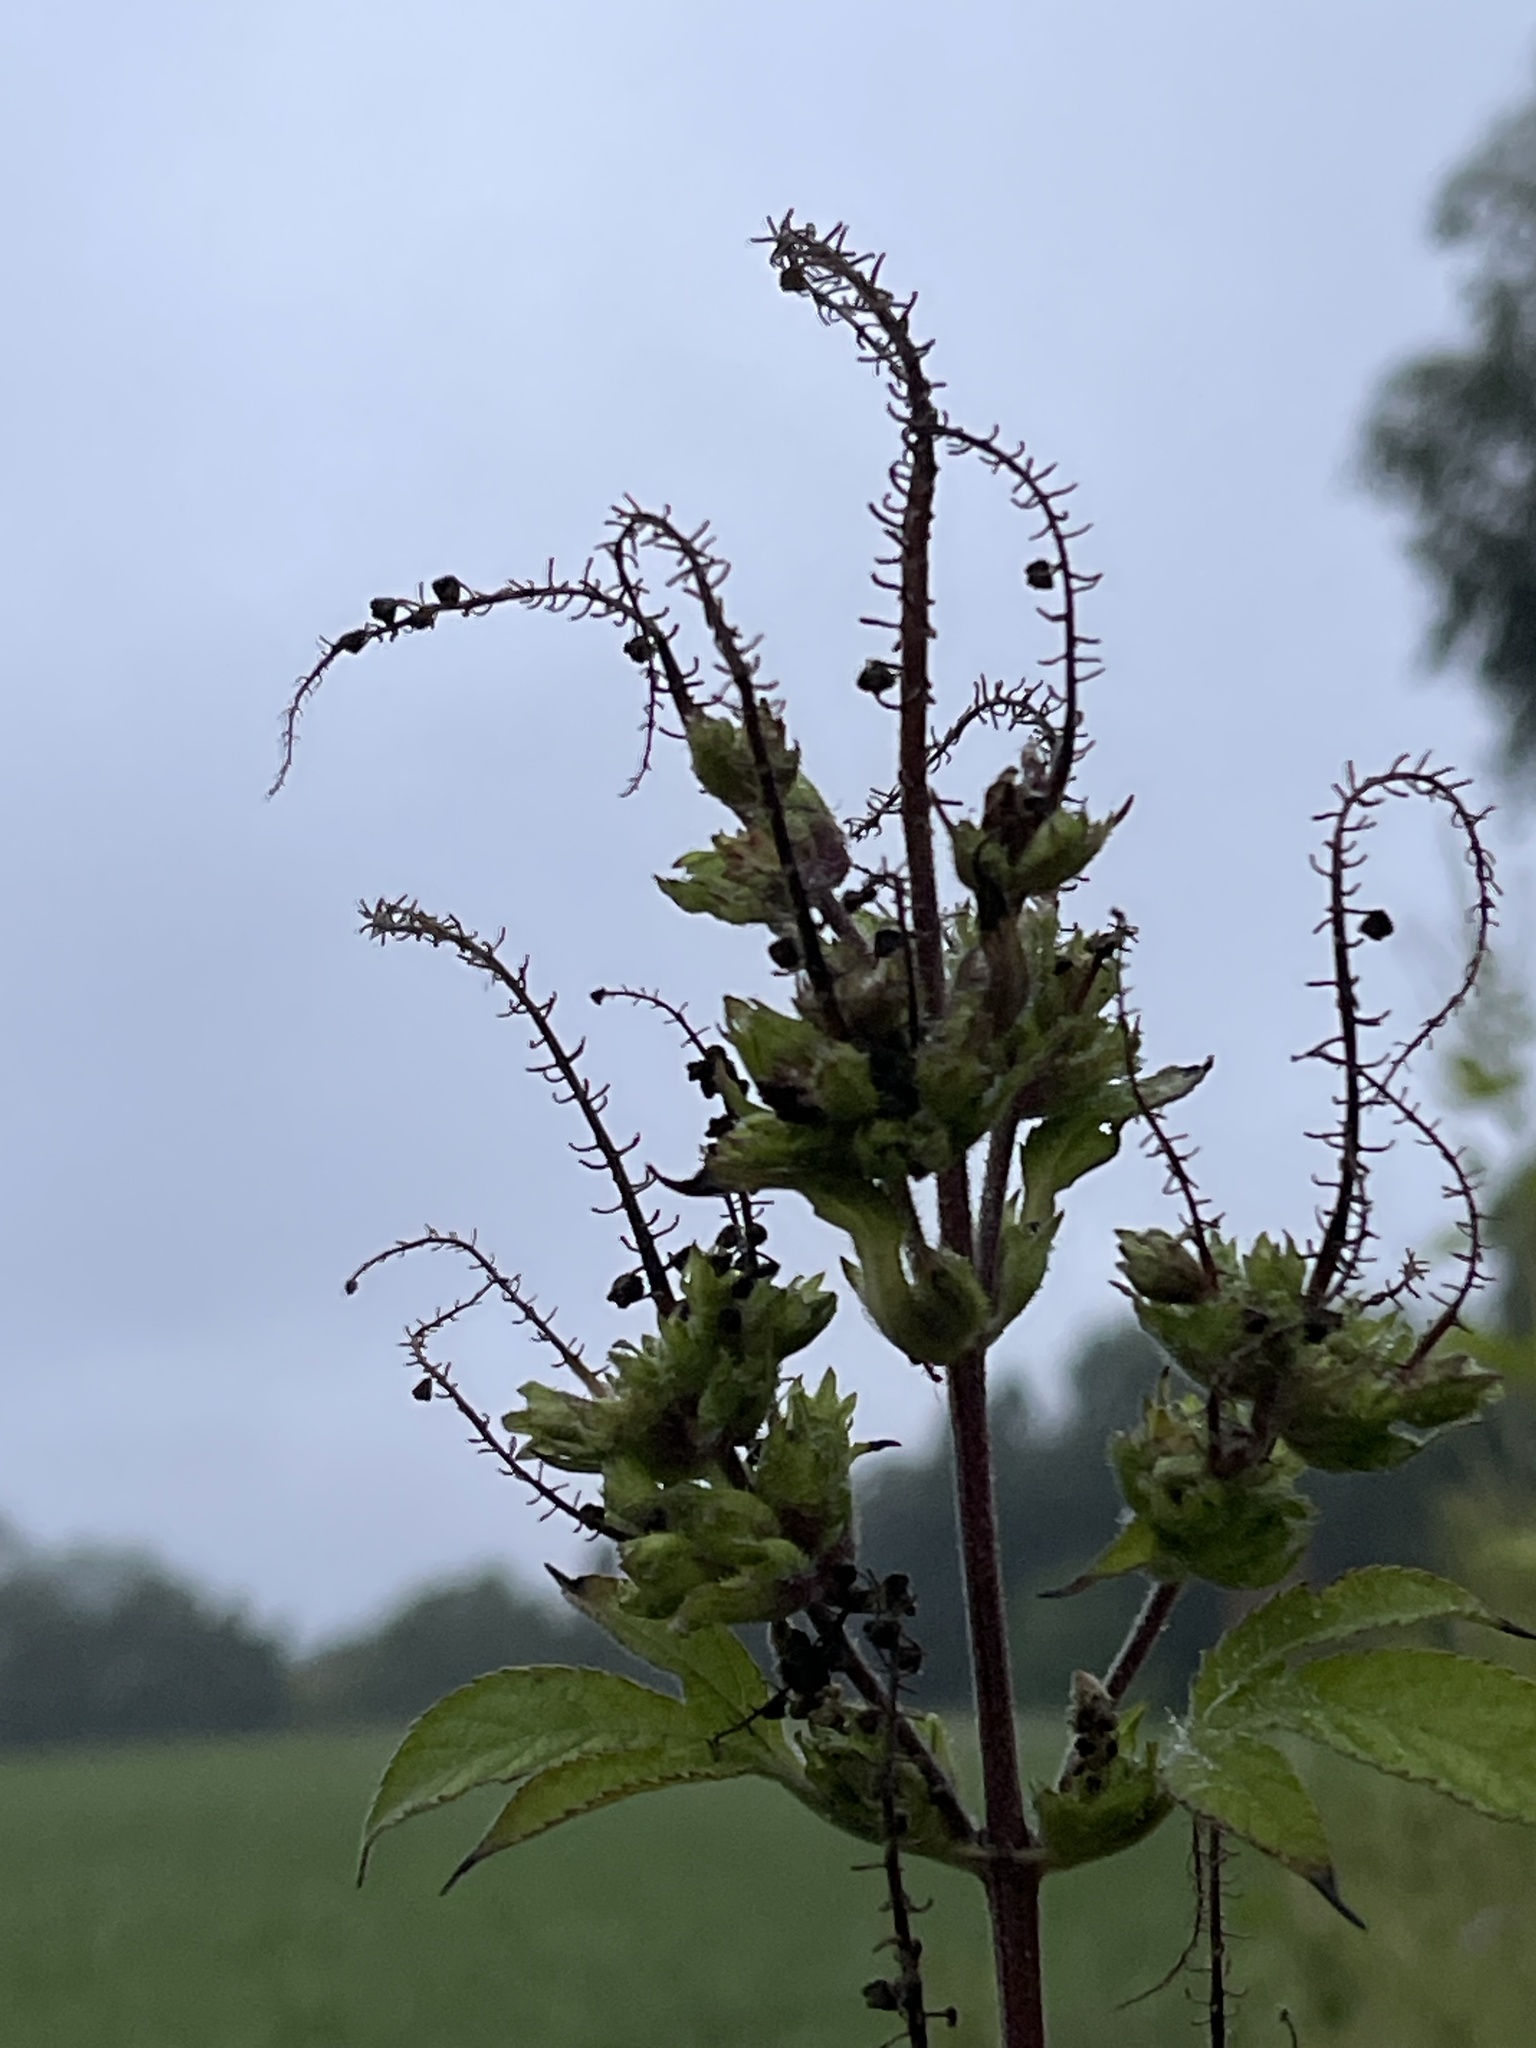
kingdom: Plantae
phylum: Tracheophyta
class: Magnoliopsida
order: Asterales
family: Asteraceae
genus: Ambrosia
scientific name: Ambrosia trifida
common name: Giant ragweed
